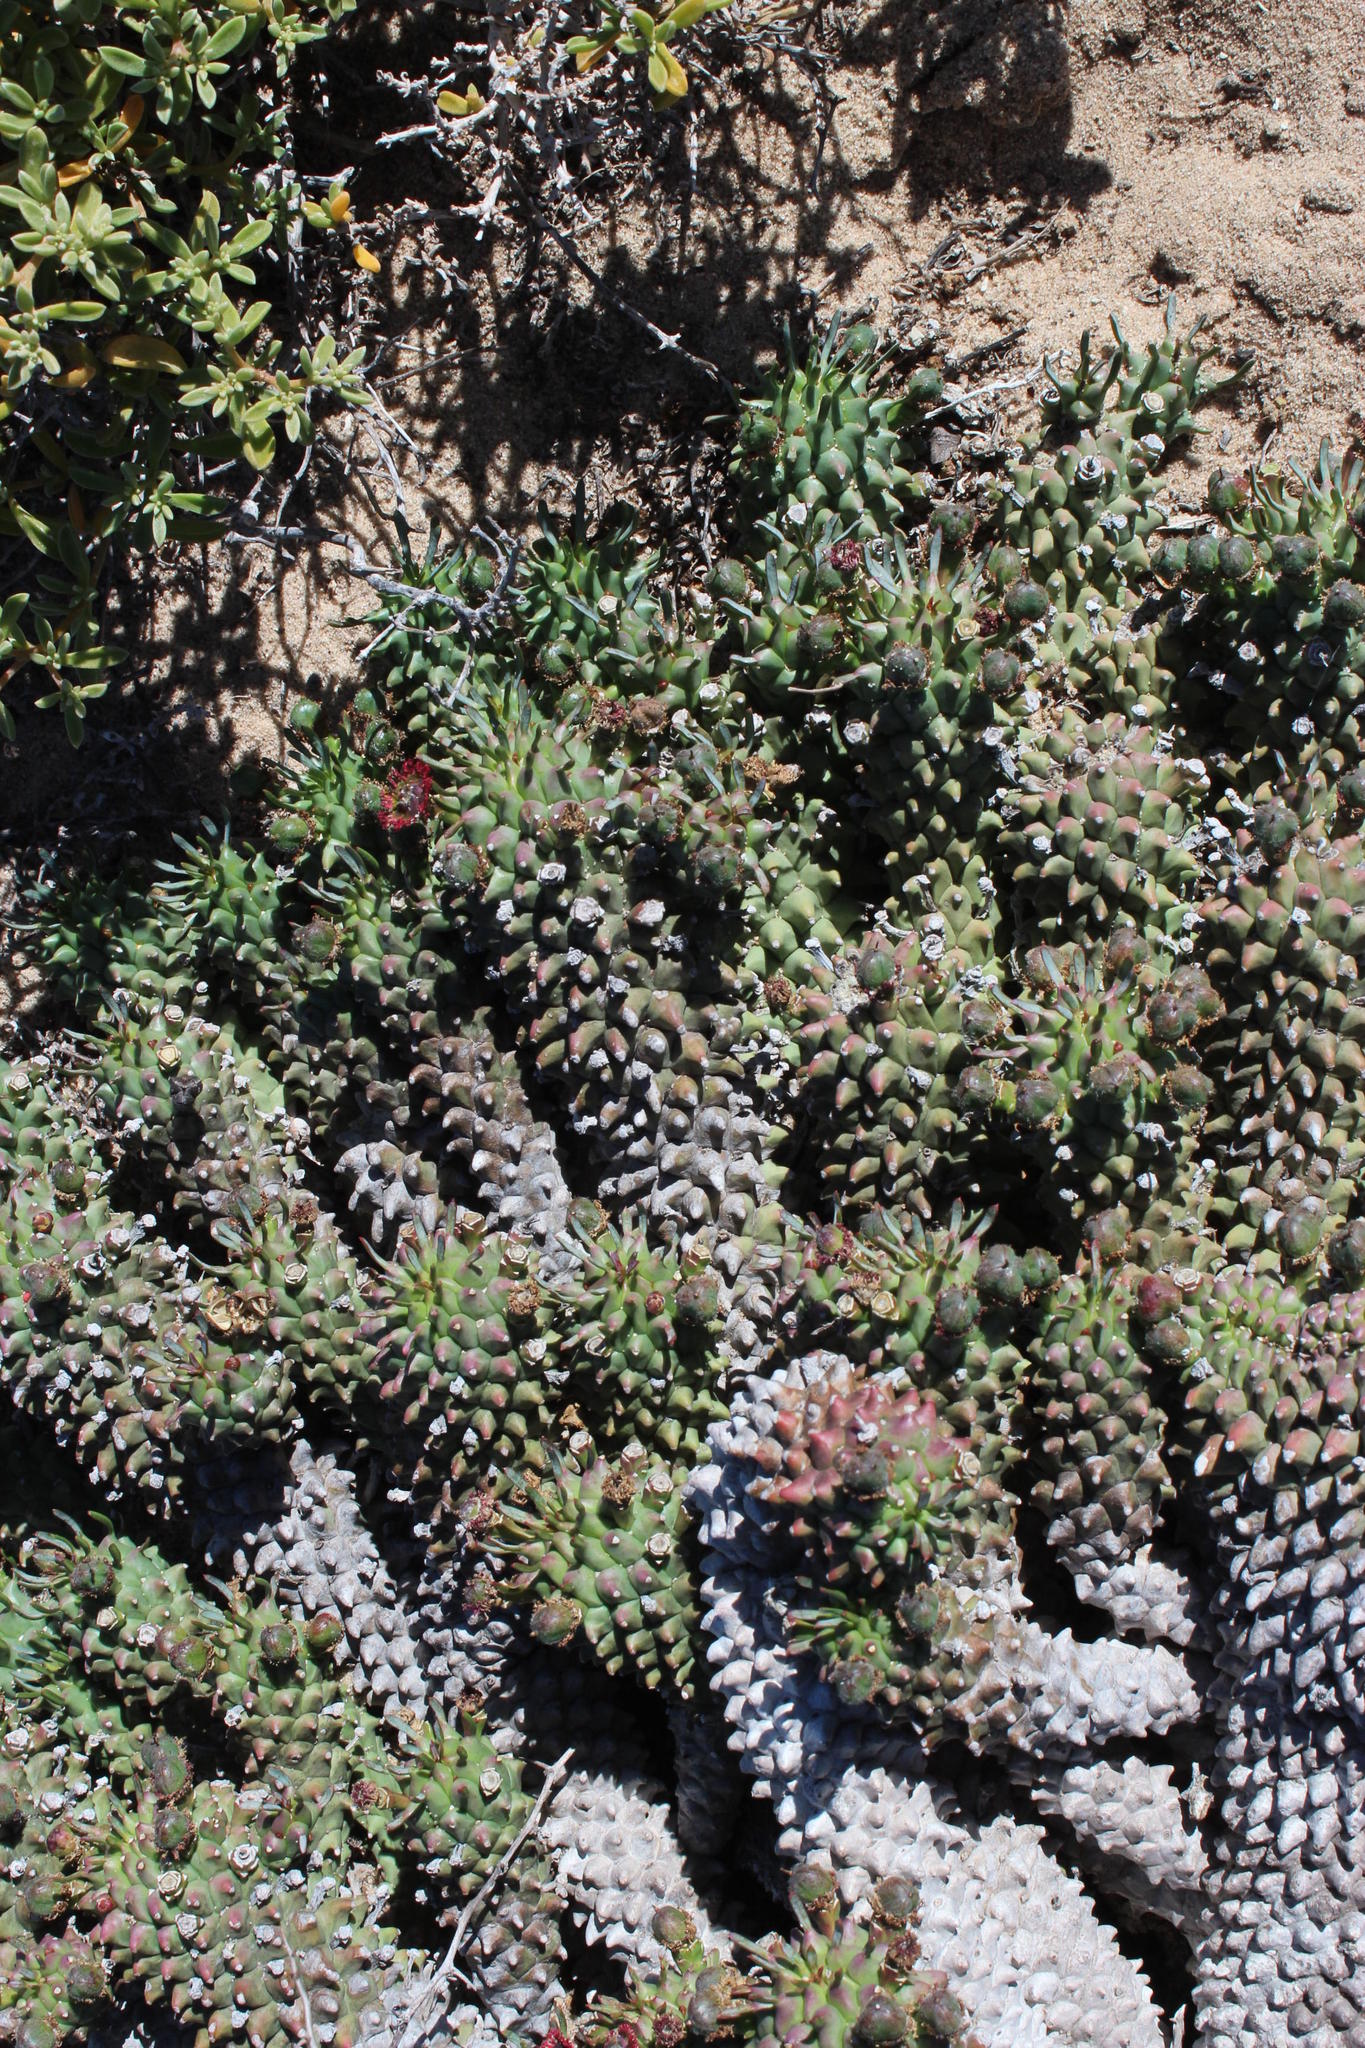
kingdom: Plantae
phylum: Tracheophyta
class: Magnoliopsida
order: Malpighiales
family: Euphorbiaceae
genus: Euphorbia
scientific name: Euphorbia caput-medusae
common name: Medusa's-head
